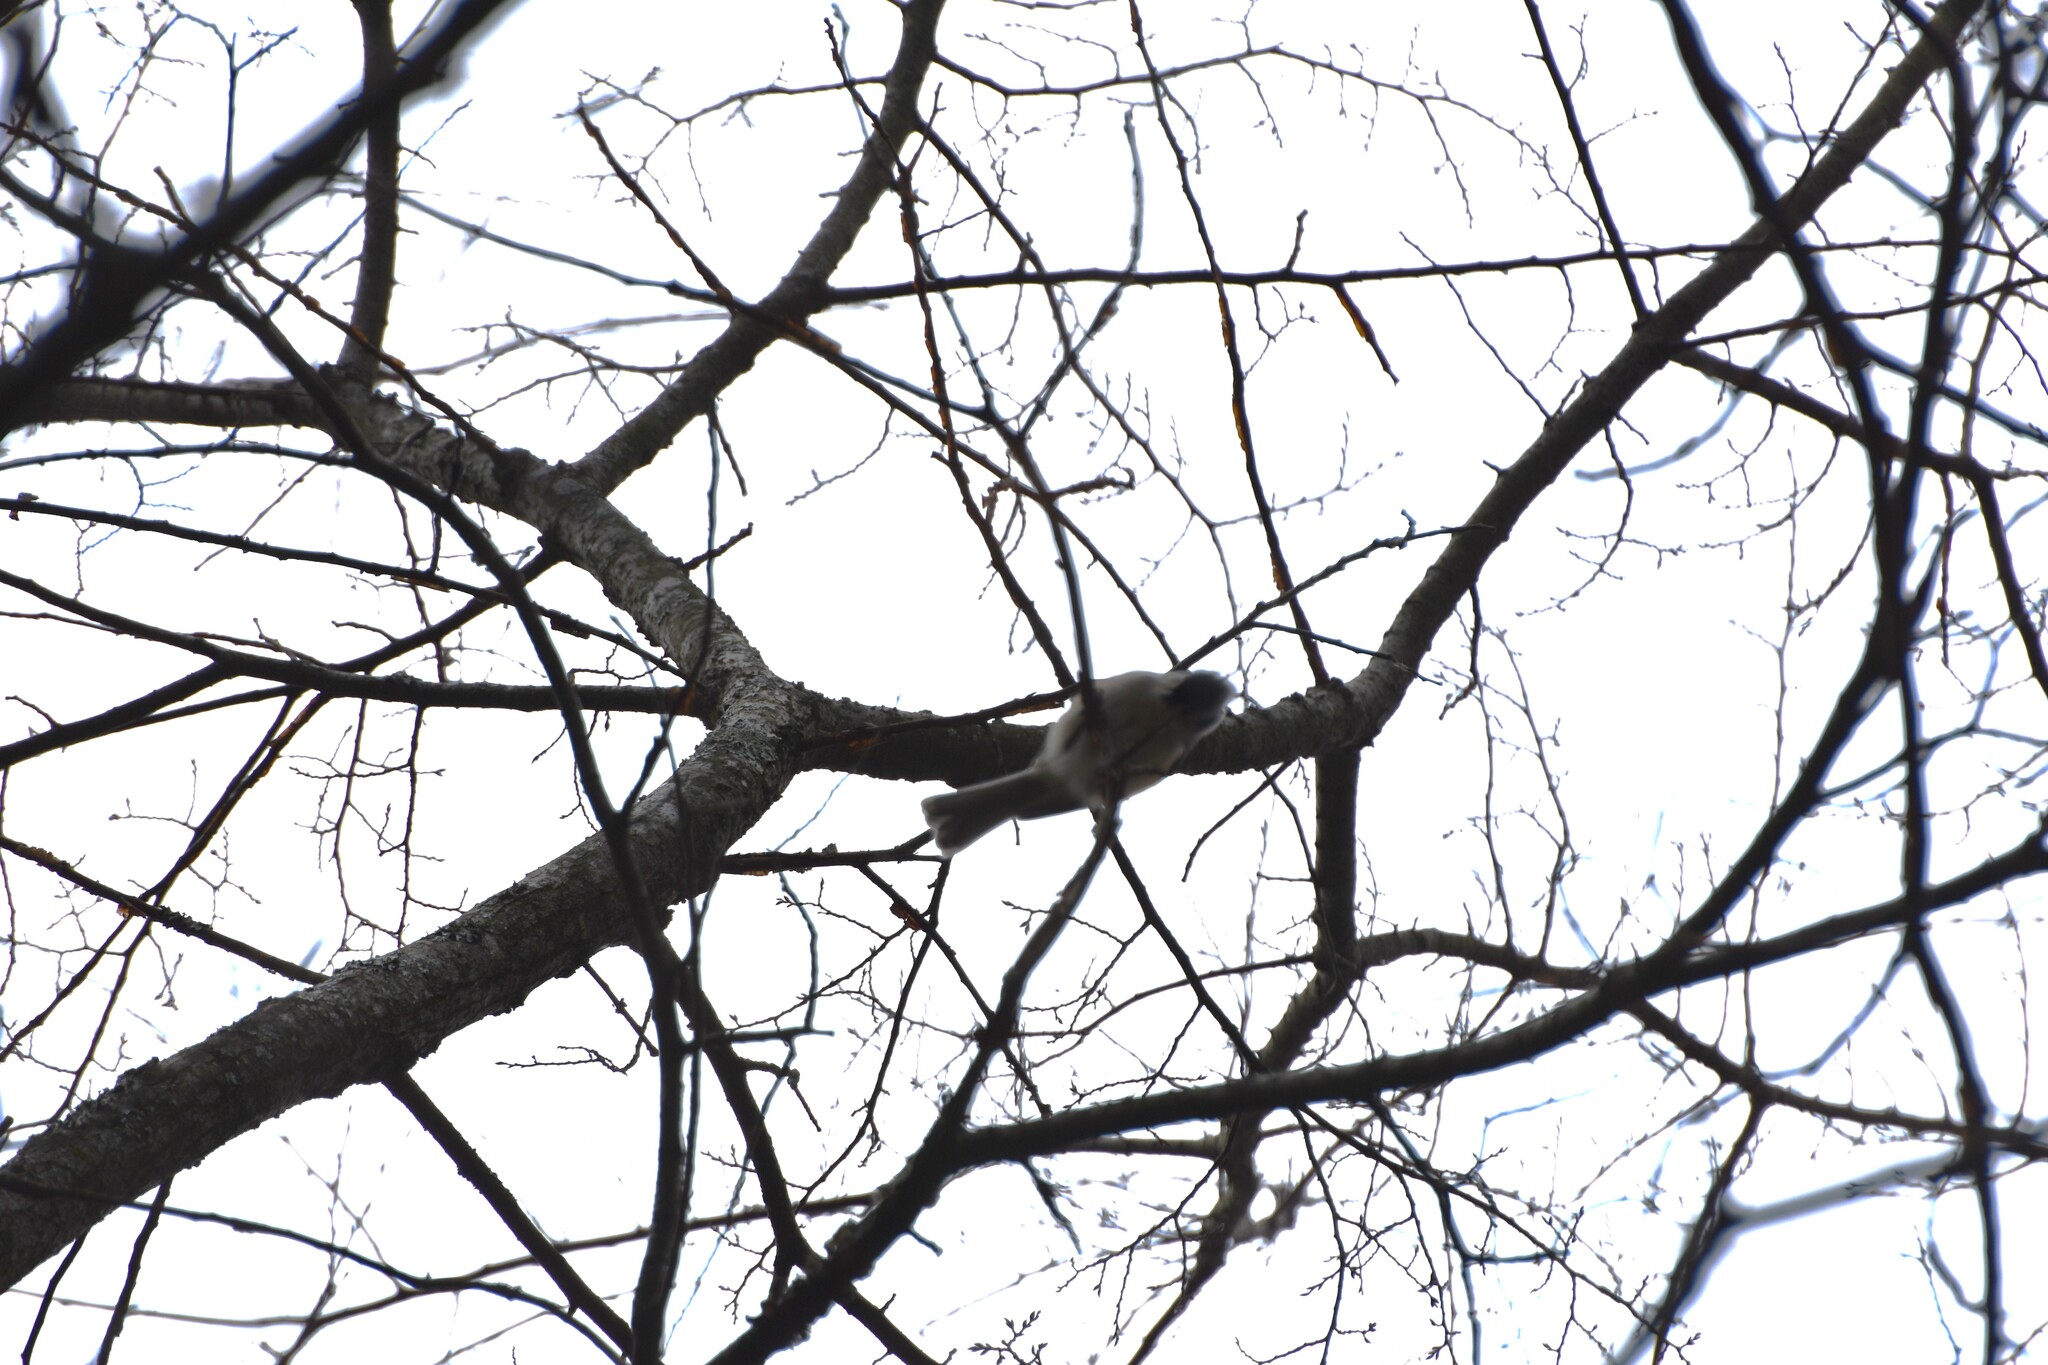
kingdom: Animalia
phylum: Chordata
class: Aves
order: Passeriformes
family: Paridae
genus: Baeolophus
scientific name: Baeolophus bicolor
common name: Tufted titmouse
